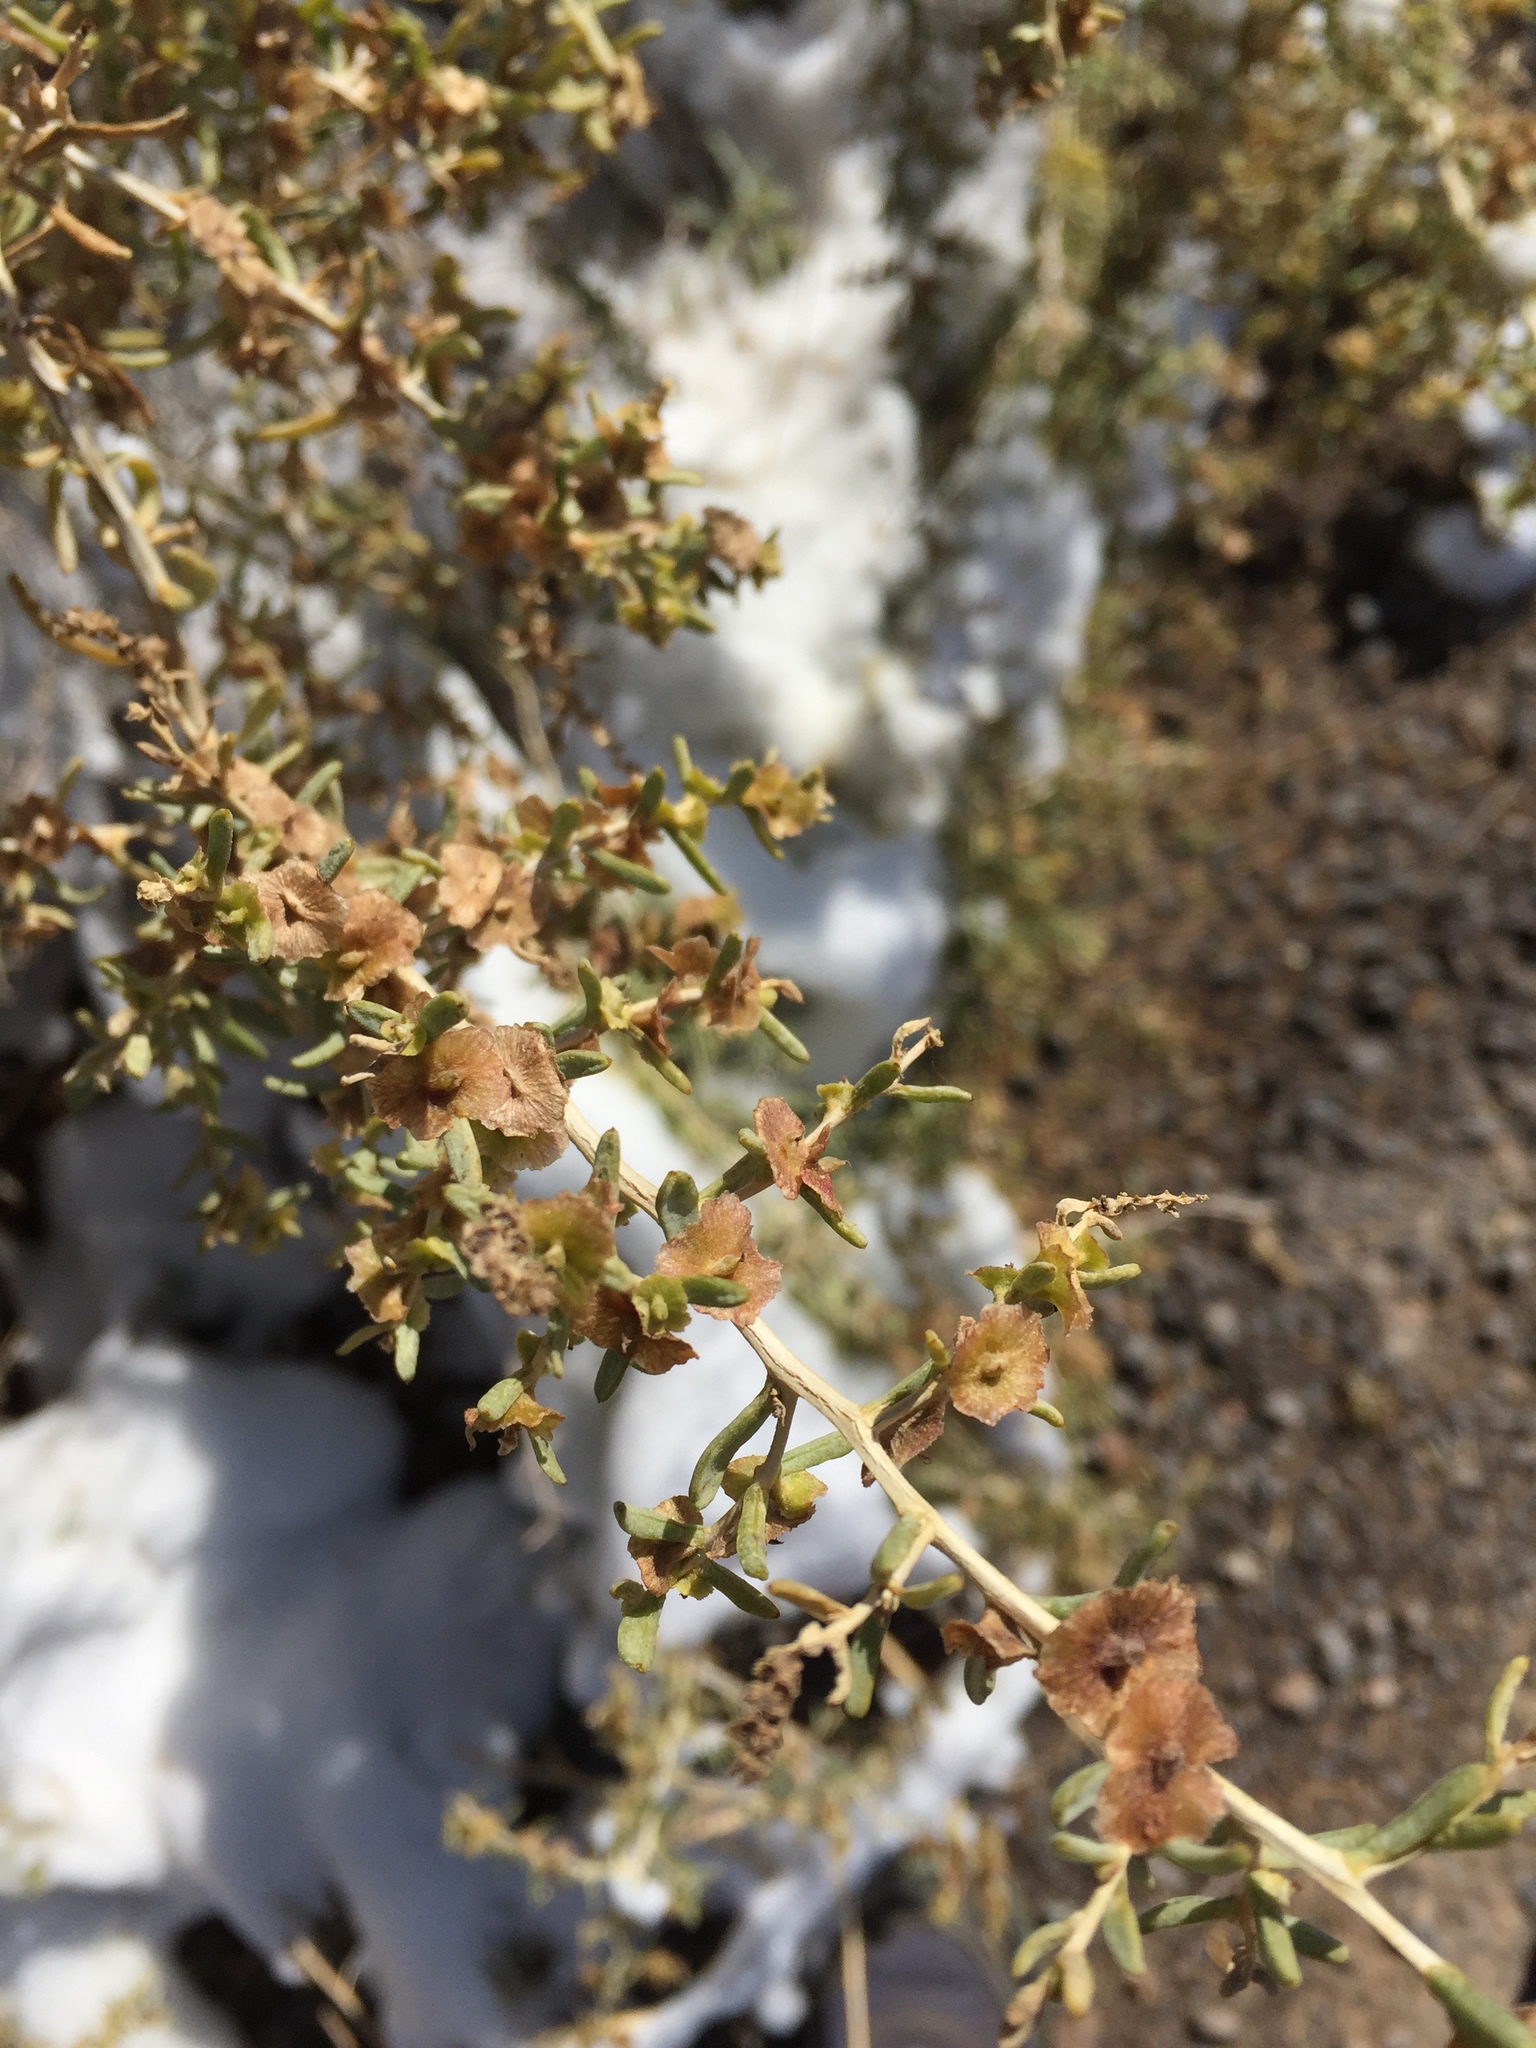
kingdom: Plantae
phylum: Tracheophyta
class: Magnoliopsida
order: Caryophyllales
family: Amaranthaceae
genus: Atriplex
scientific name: Atriplex canescens
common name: Four-wing saltbush
